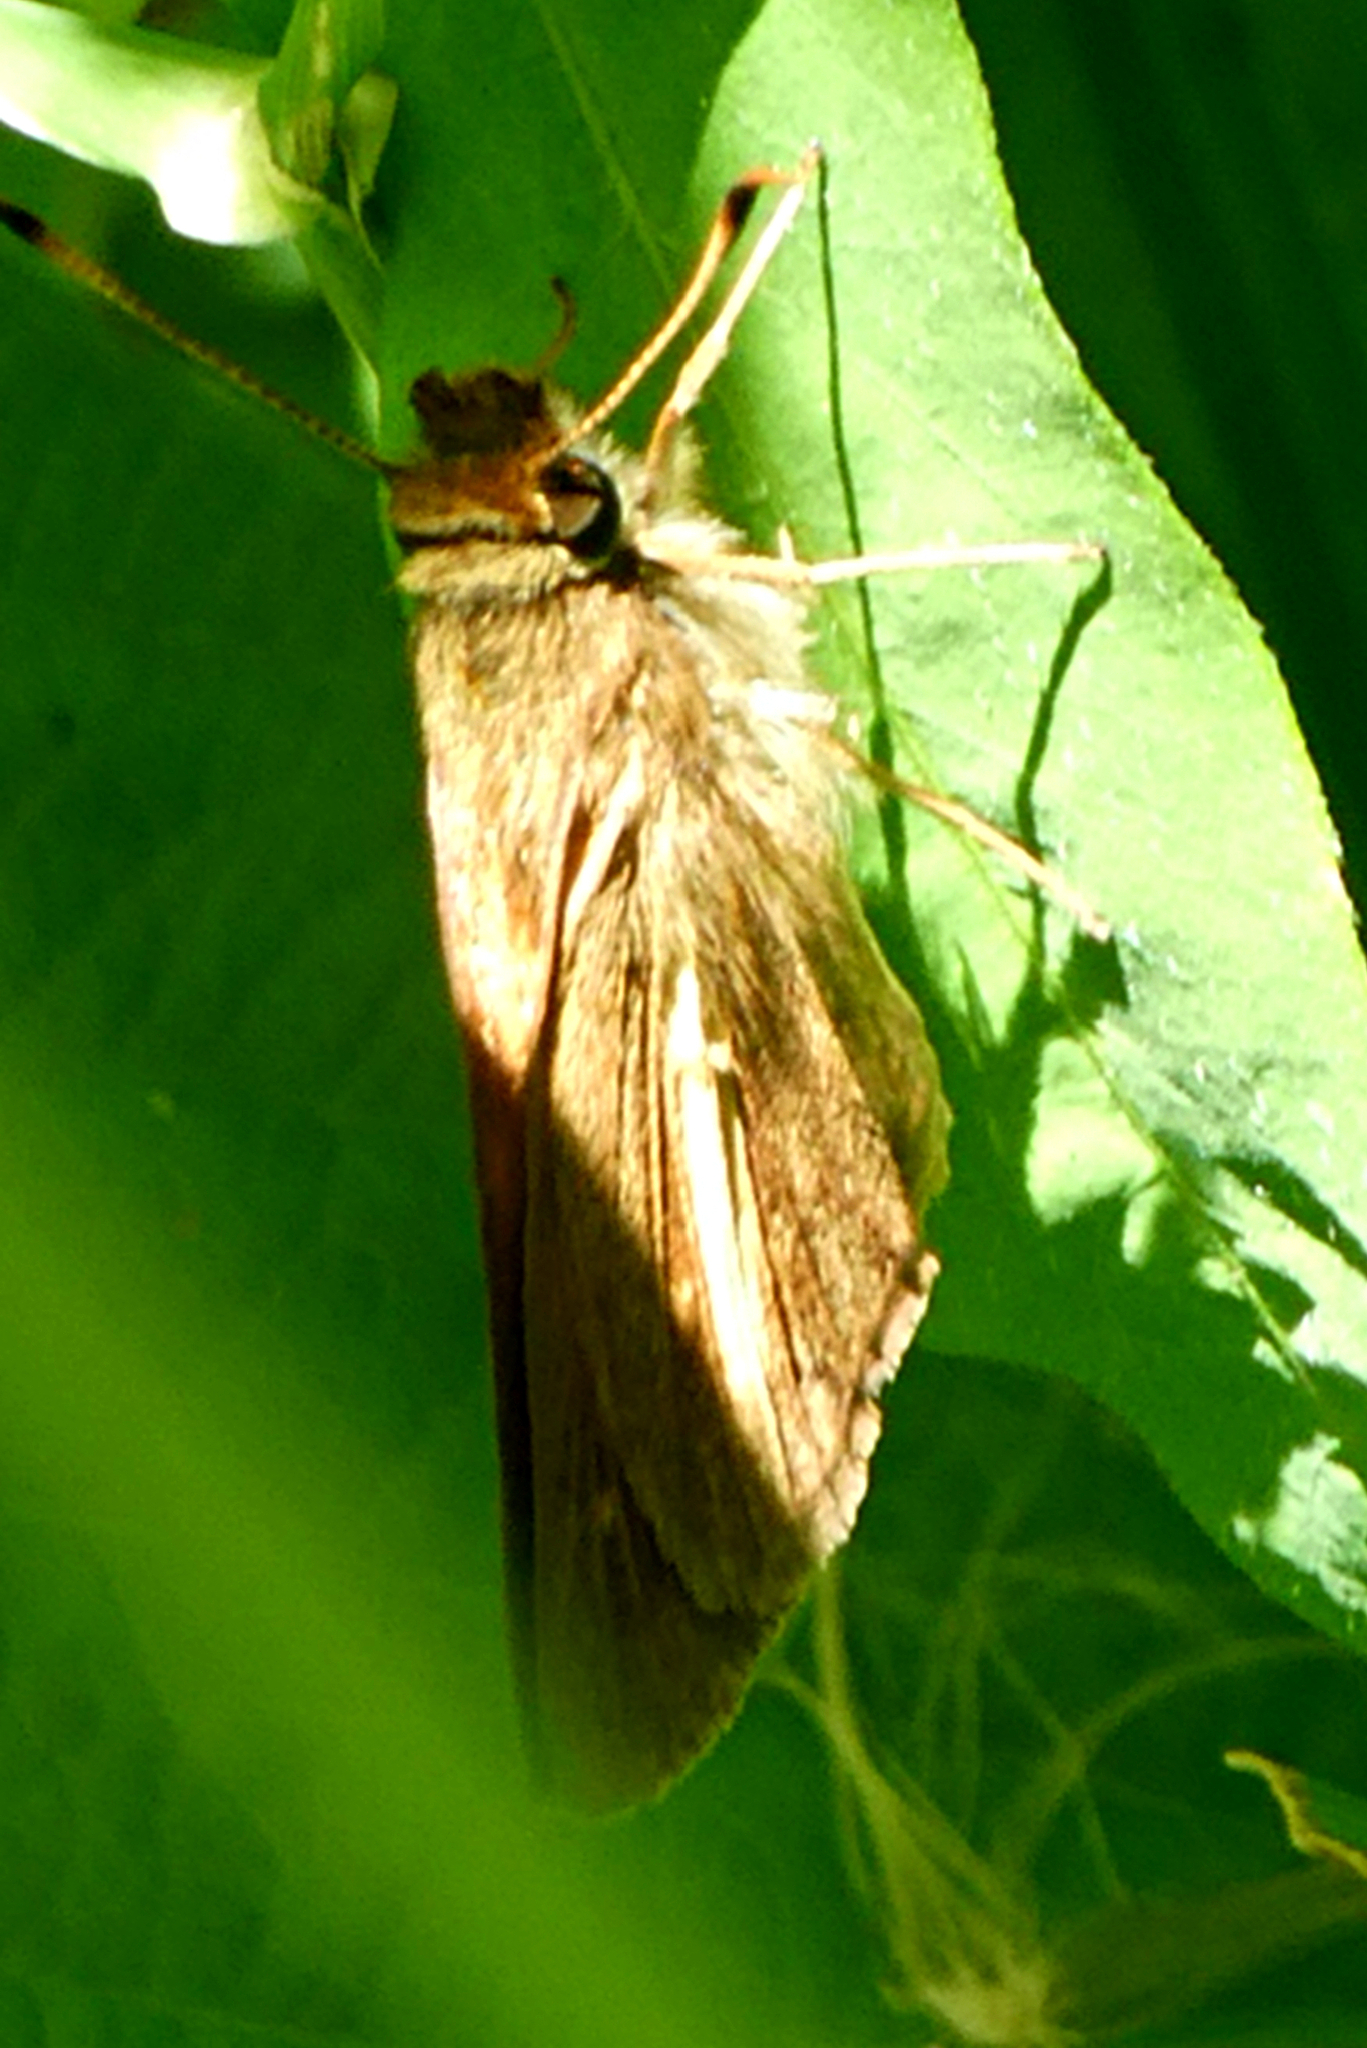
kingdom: Animalia
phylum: Arthropoda
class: Insecta
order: Lepidoptera
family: Hesperiidae
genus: Poanes
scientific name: Poanes viator
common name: Broad-winged skipper
